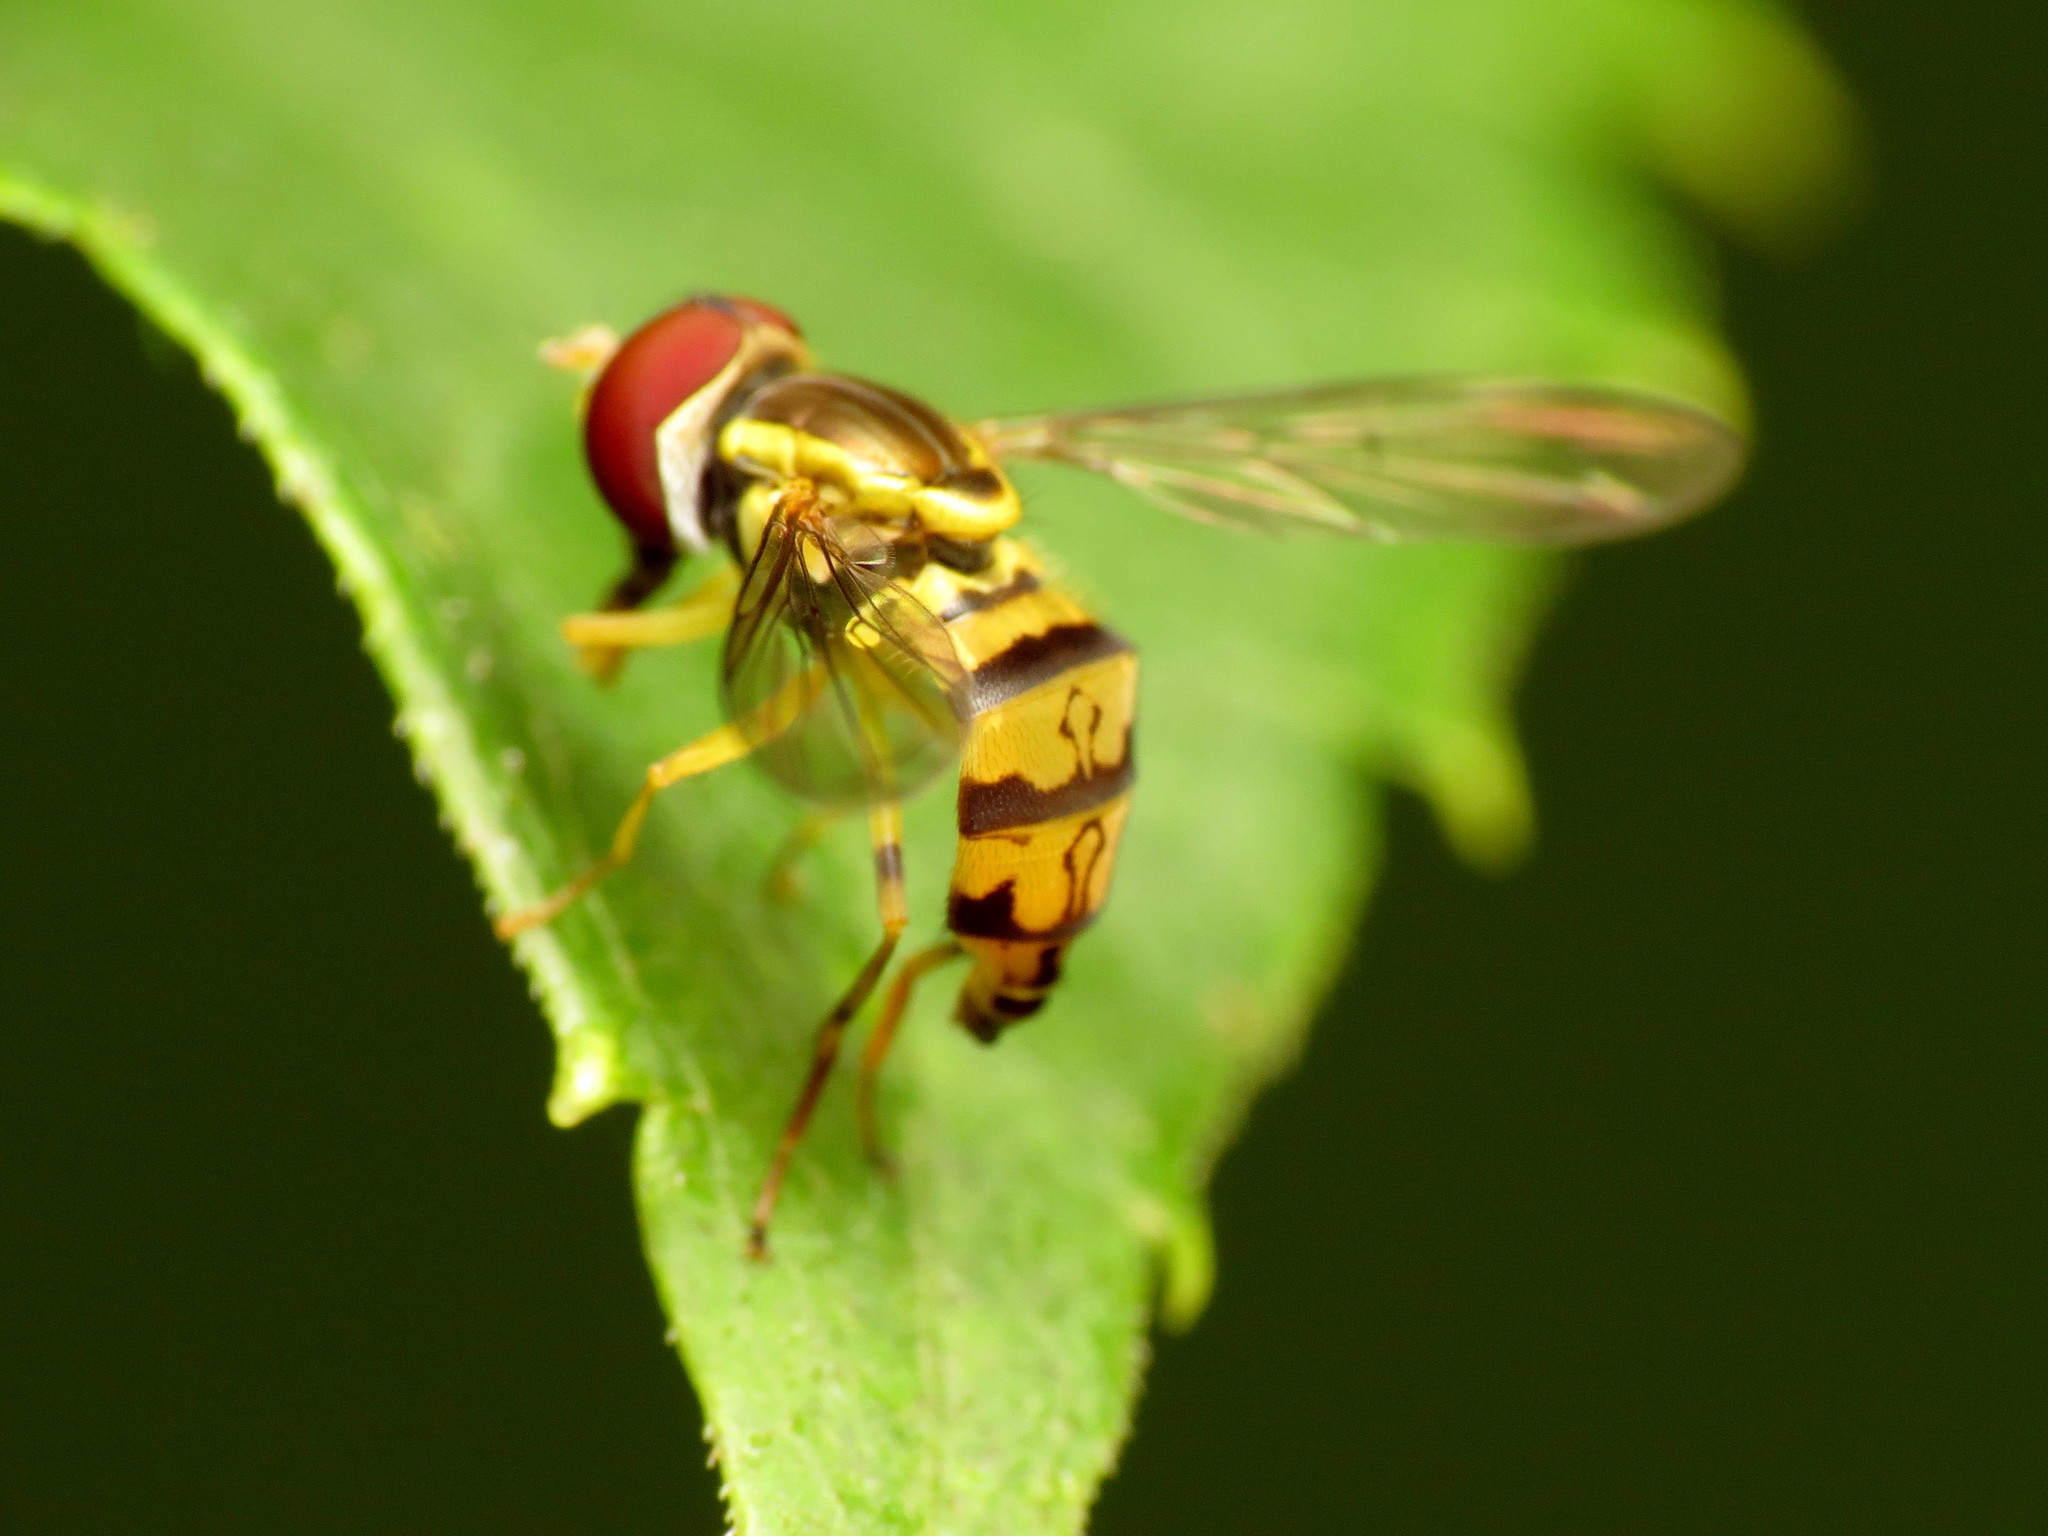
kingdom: Animalia
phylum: Arthropoda
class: Insecta
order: Diptera
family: Syrphidae
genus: Toxomerus
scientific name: Toxomerus geminatus
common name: Eastern calligrapher
